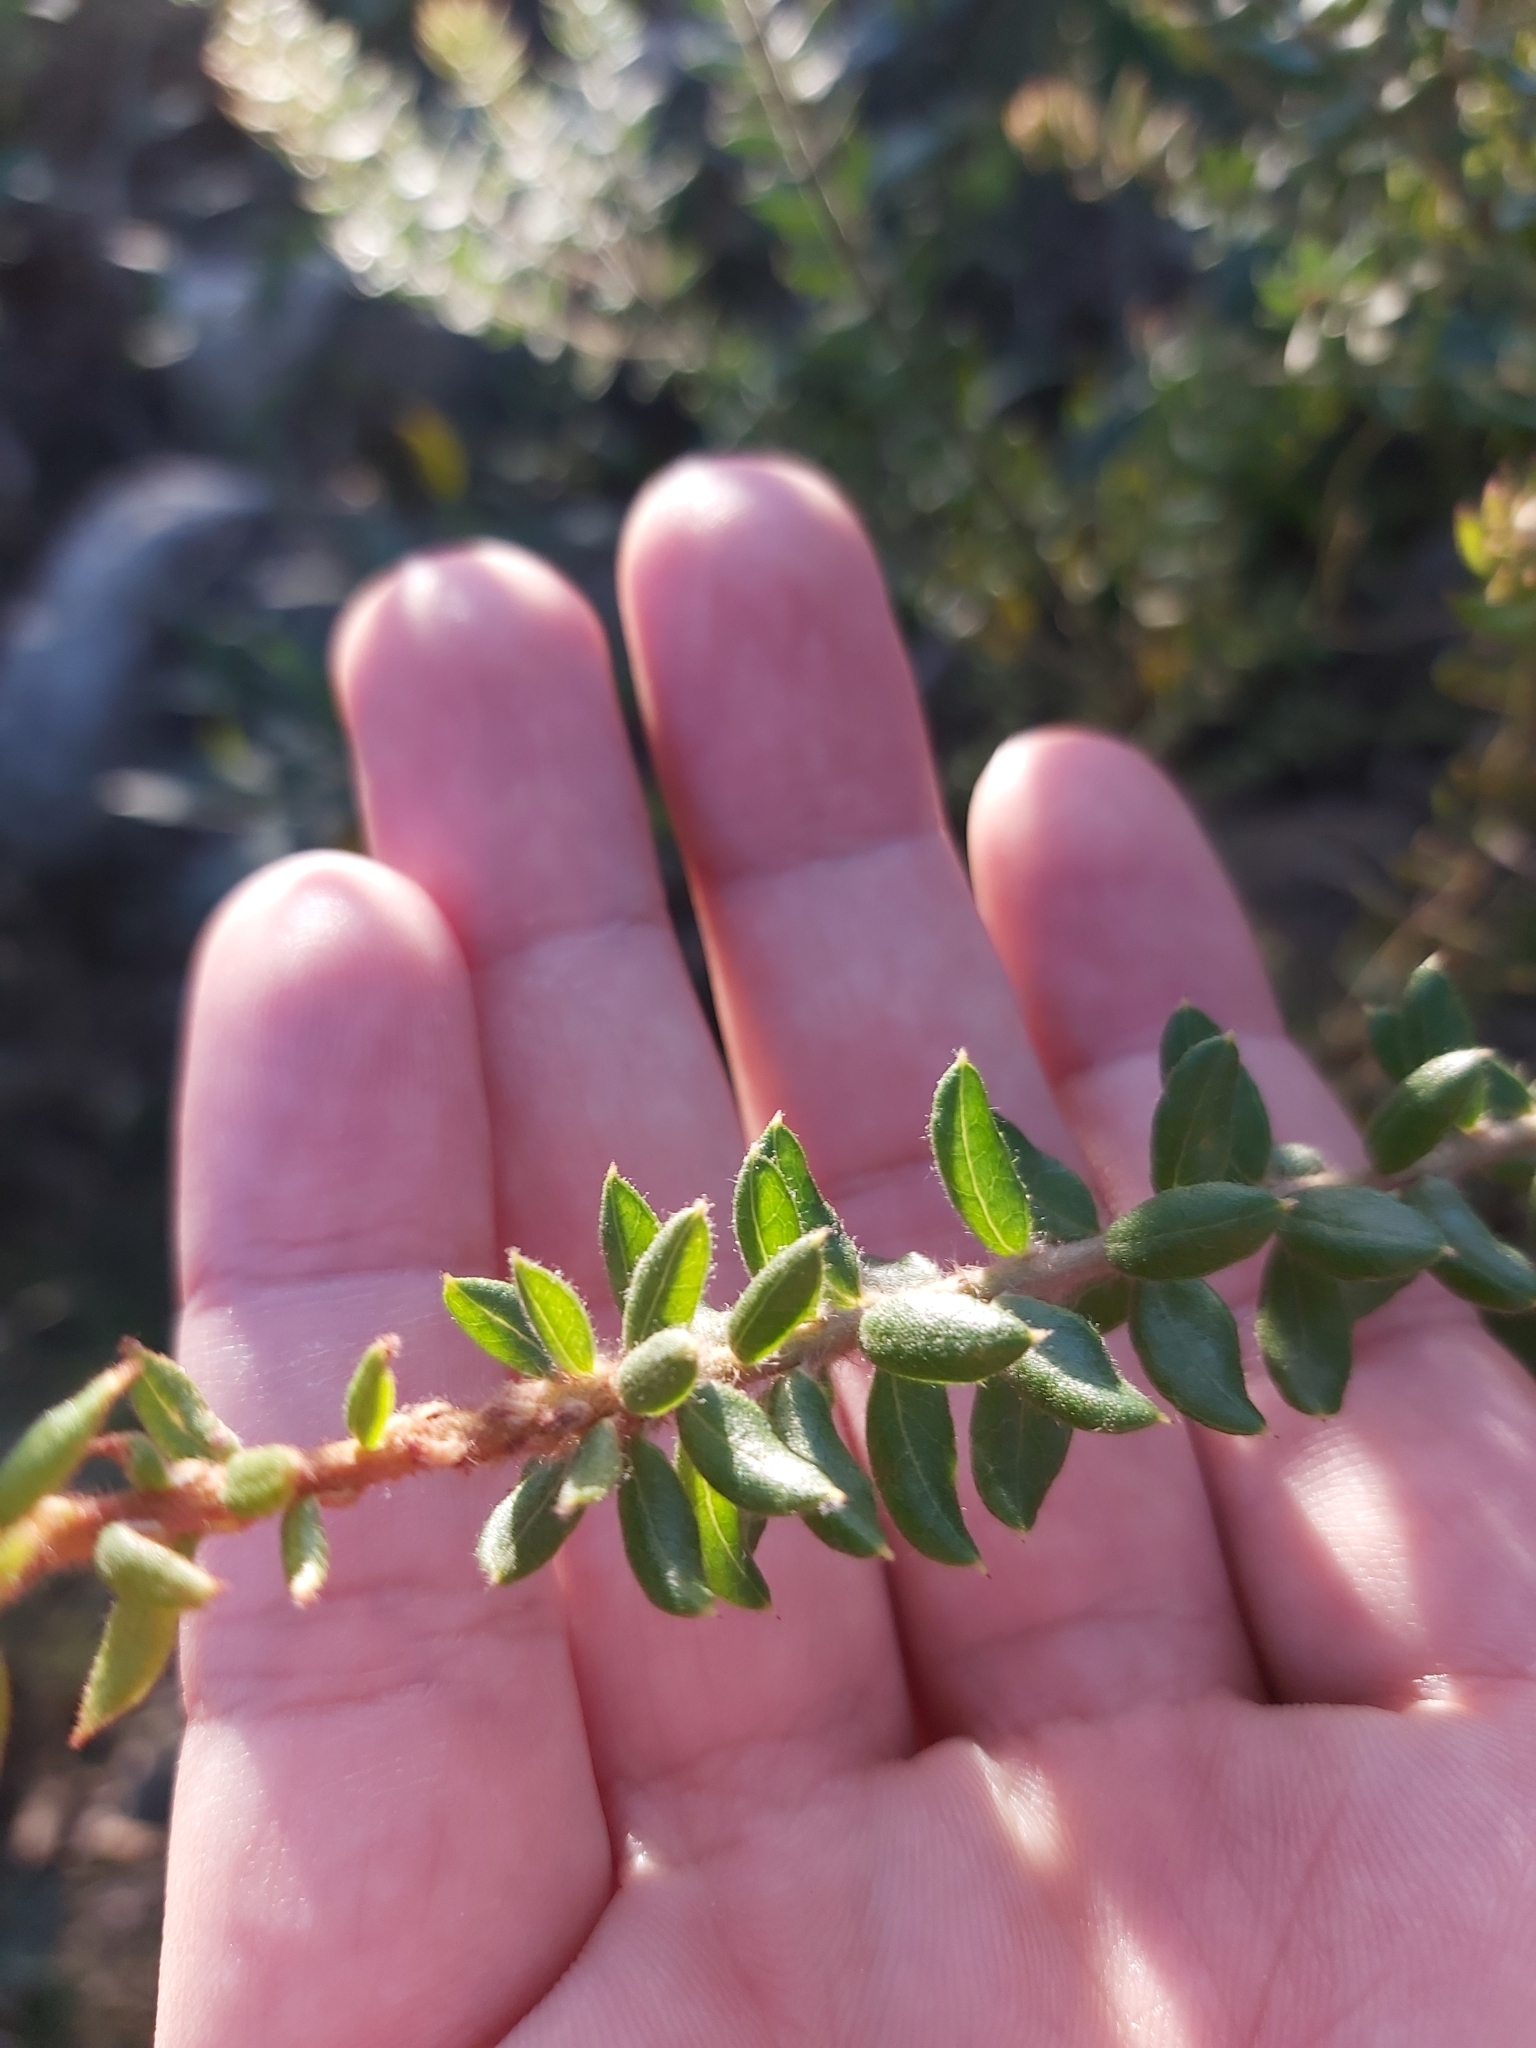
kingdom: Plantae
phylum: Tracheophyta
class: Magnoliopsida
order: Proteales
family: Proteaceae
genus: Grevillea
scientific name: Grevillea buxifolia
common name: Grey spiderflower
